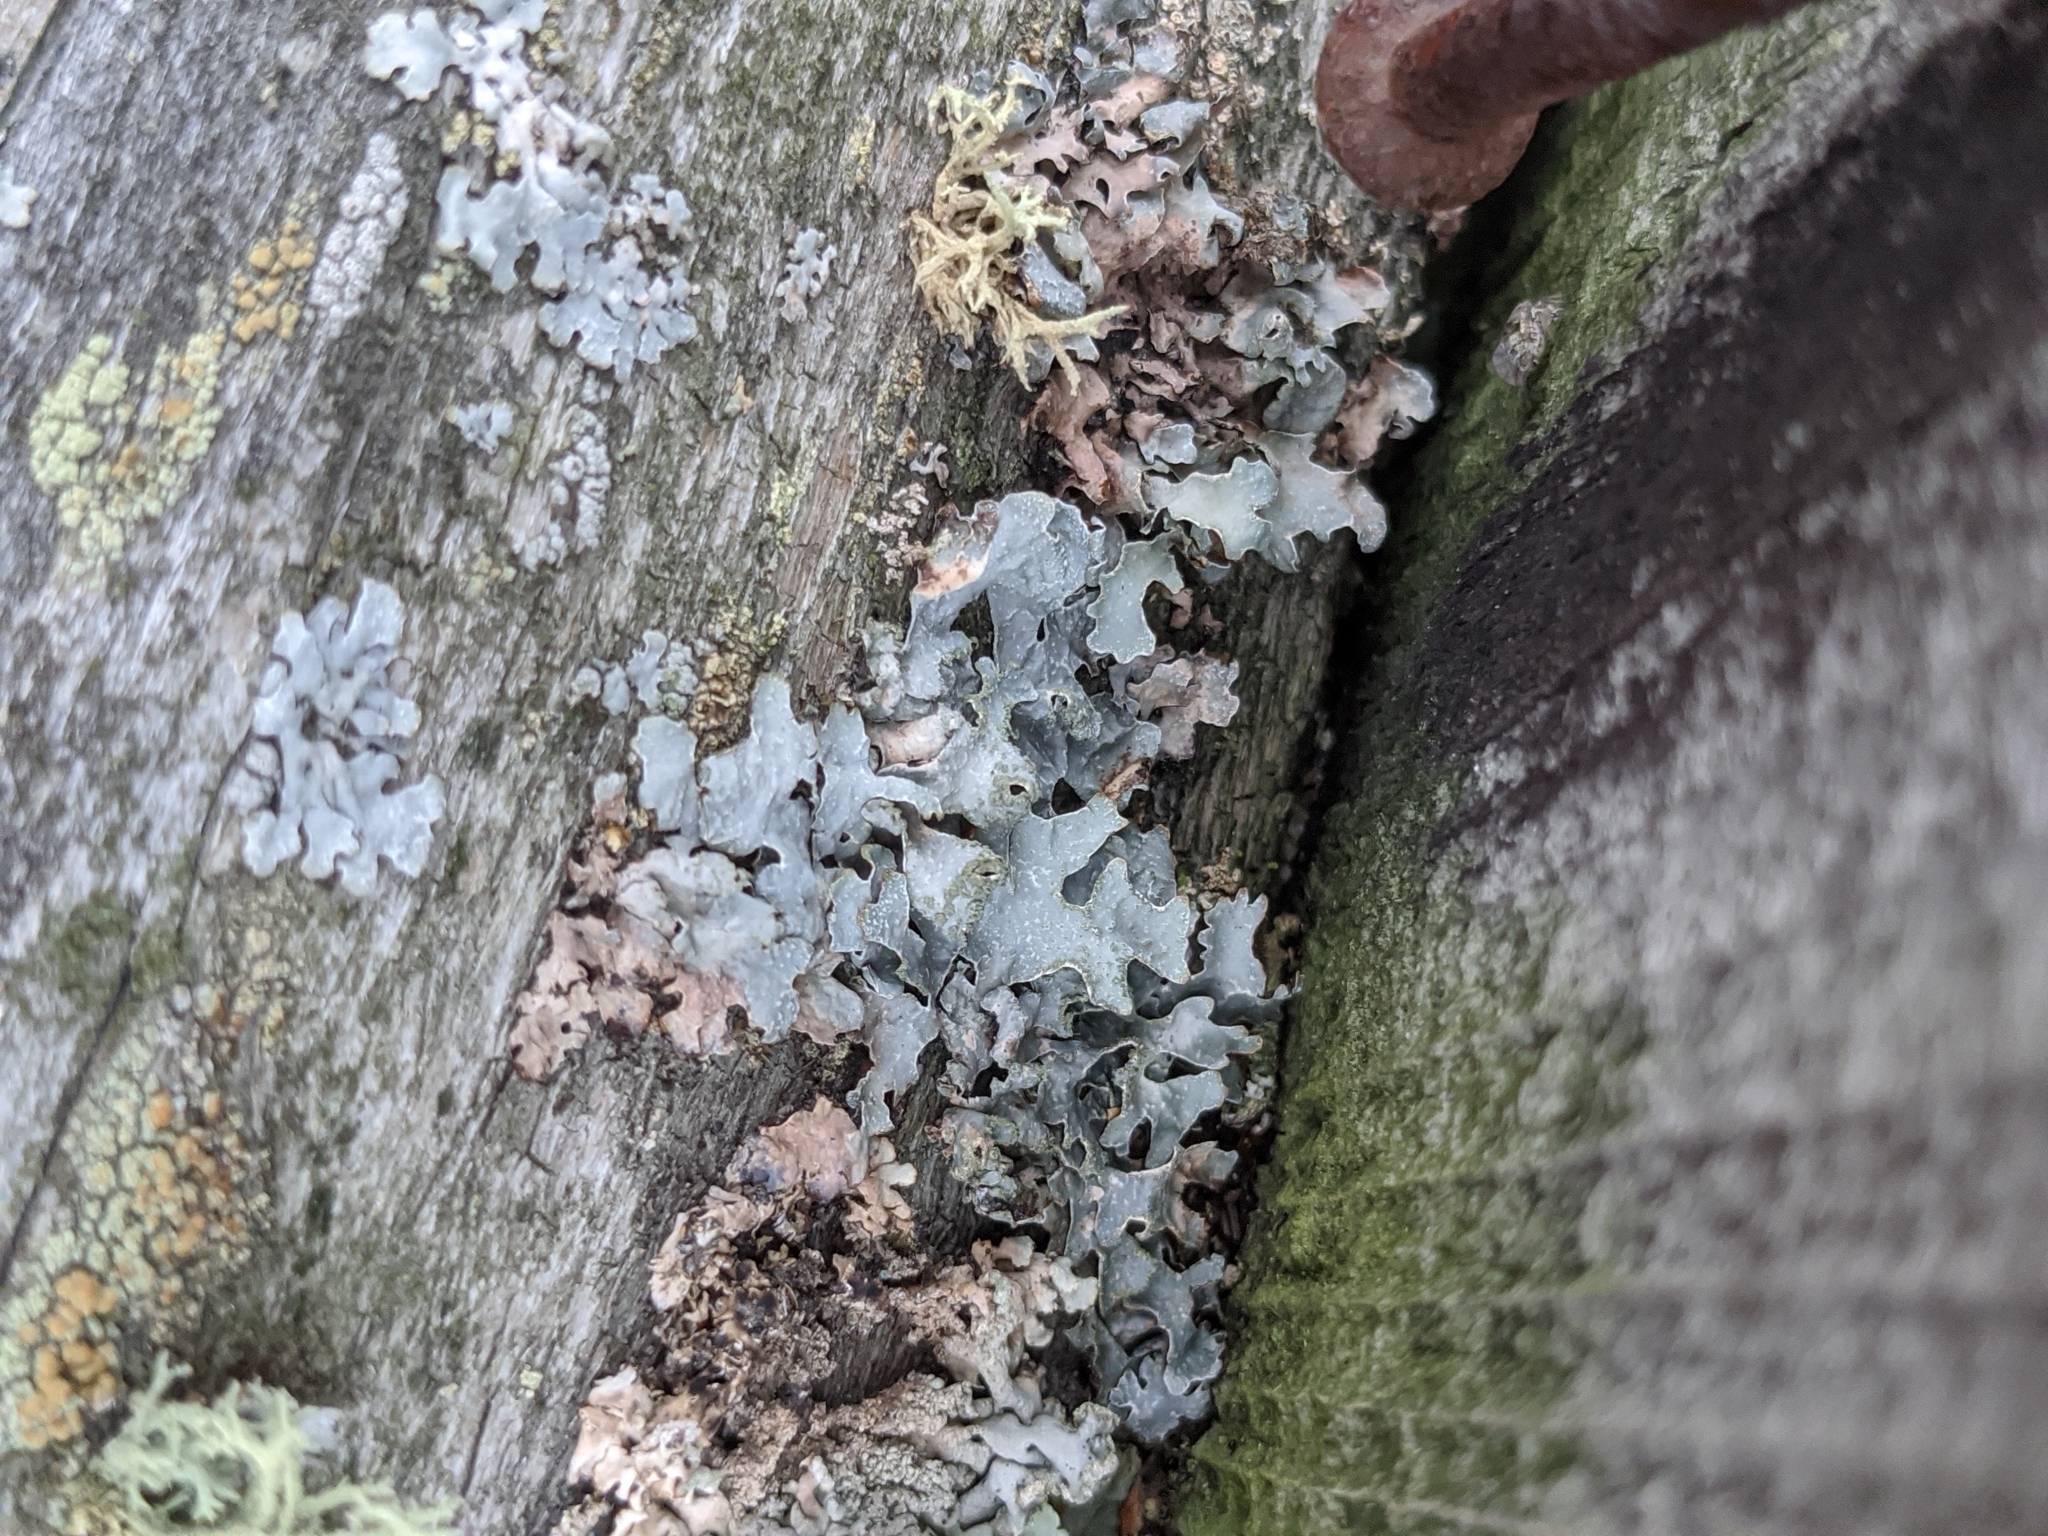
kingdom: Fungi
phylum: Ascomycota
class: Lecanoromycetes
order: Lecanorales
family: Parmeliaceae
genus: Parmelia
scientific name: Parmelia sulcata
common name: Netted shield lichen
